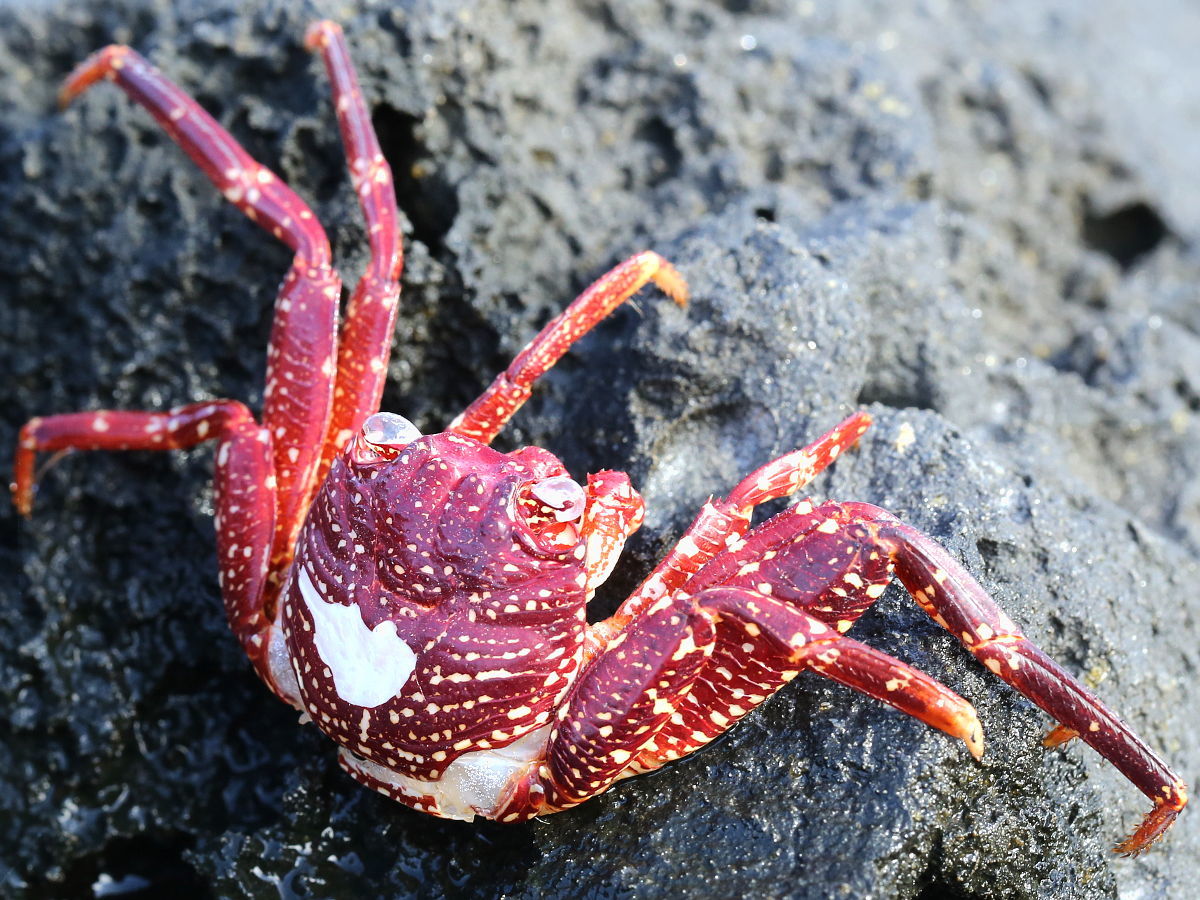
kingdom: Animalia
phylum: Arthropoda
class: Malacostraca
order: Decapoda
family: Grapsidae
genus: Grapsus
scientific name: Grapsus tenuicrustatus
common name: Natal lightfoot crab
